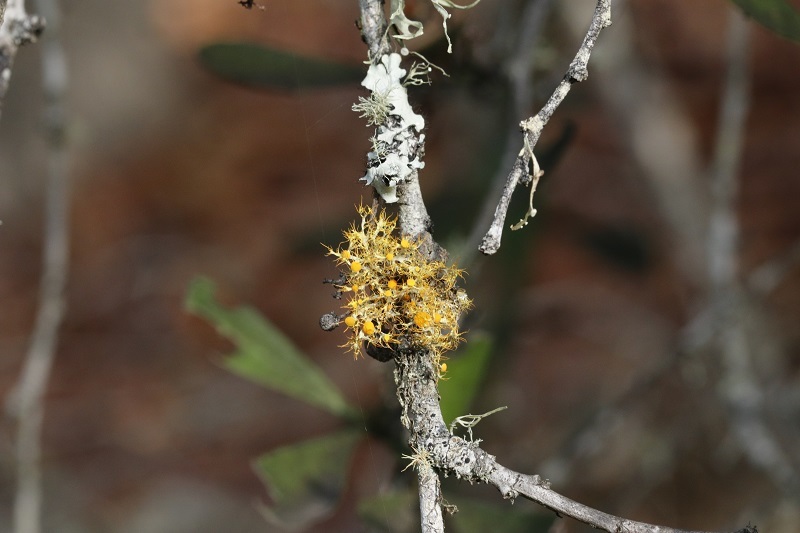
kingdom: Fungi
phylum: Ascomycota
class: Lecanoromycetes
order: Teloschistales
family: Teloschistaceae
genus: Teloschistes
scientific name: Teloschistes pulvinaris
